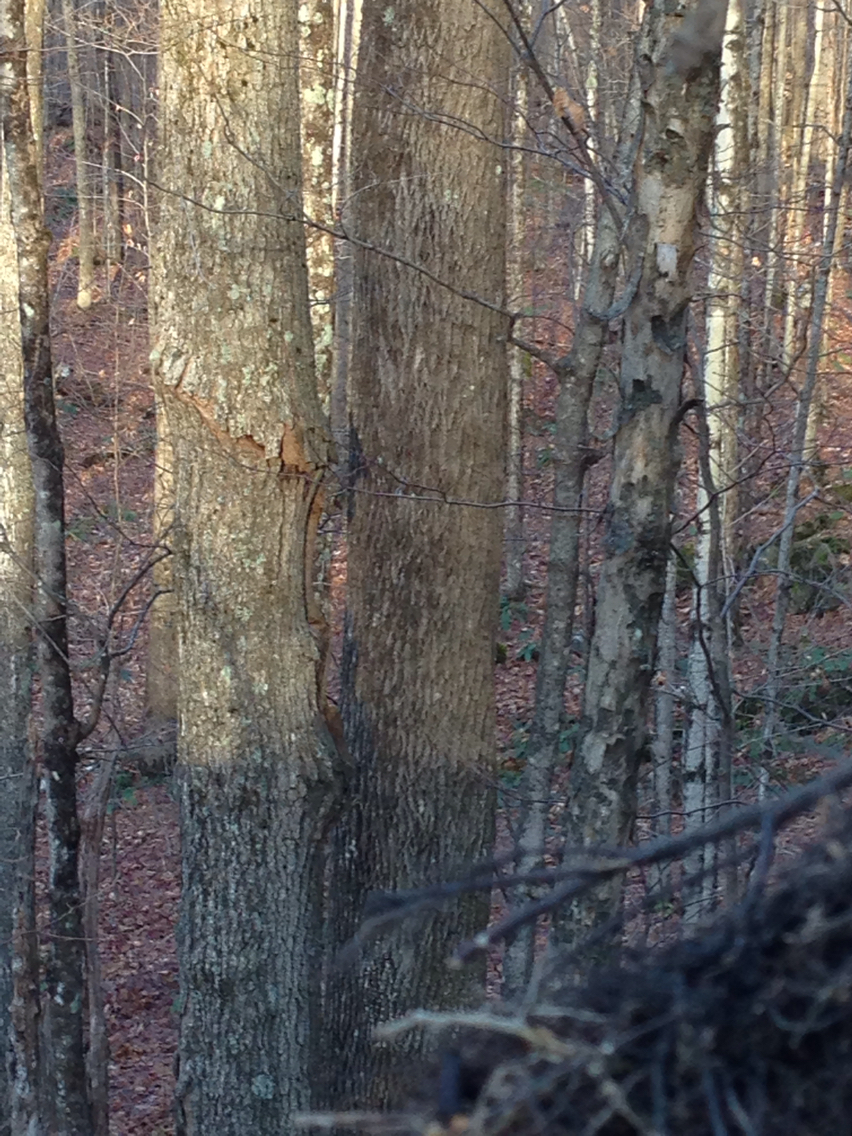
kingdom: Plantae
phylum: Tracheophyta
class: Magnoliopsida
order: Lamiales
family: Oleaceae
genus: Fraxinus
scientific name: Fraxinus americana
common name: White ash
